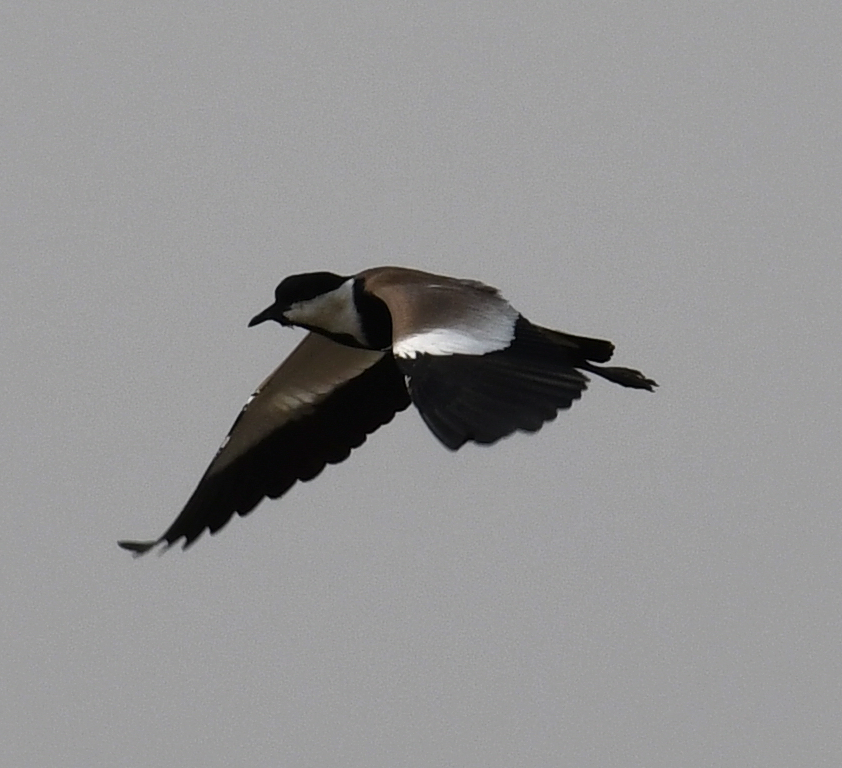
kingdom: Animalia
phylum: Chordata
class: Aves
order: Charadriiformes
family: Charadriidae
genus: Vanellus
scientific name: Vanellus spinosus
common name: Spur-winged lapwing
